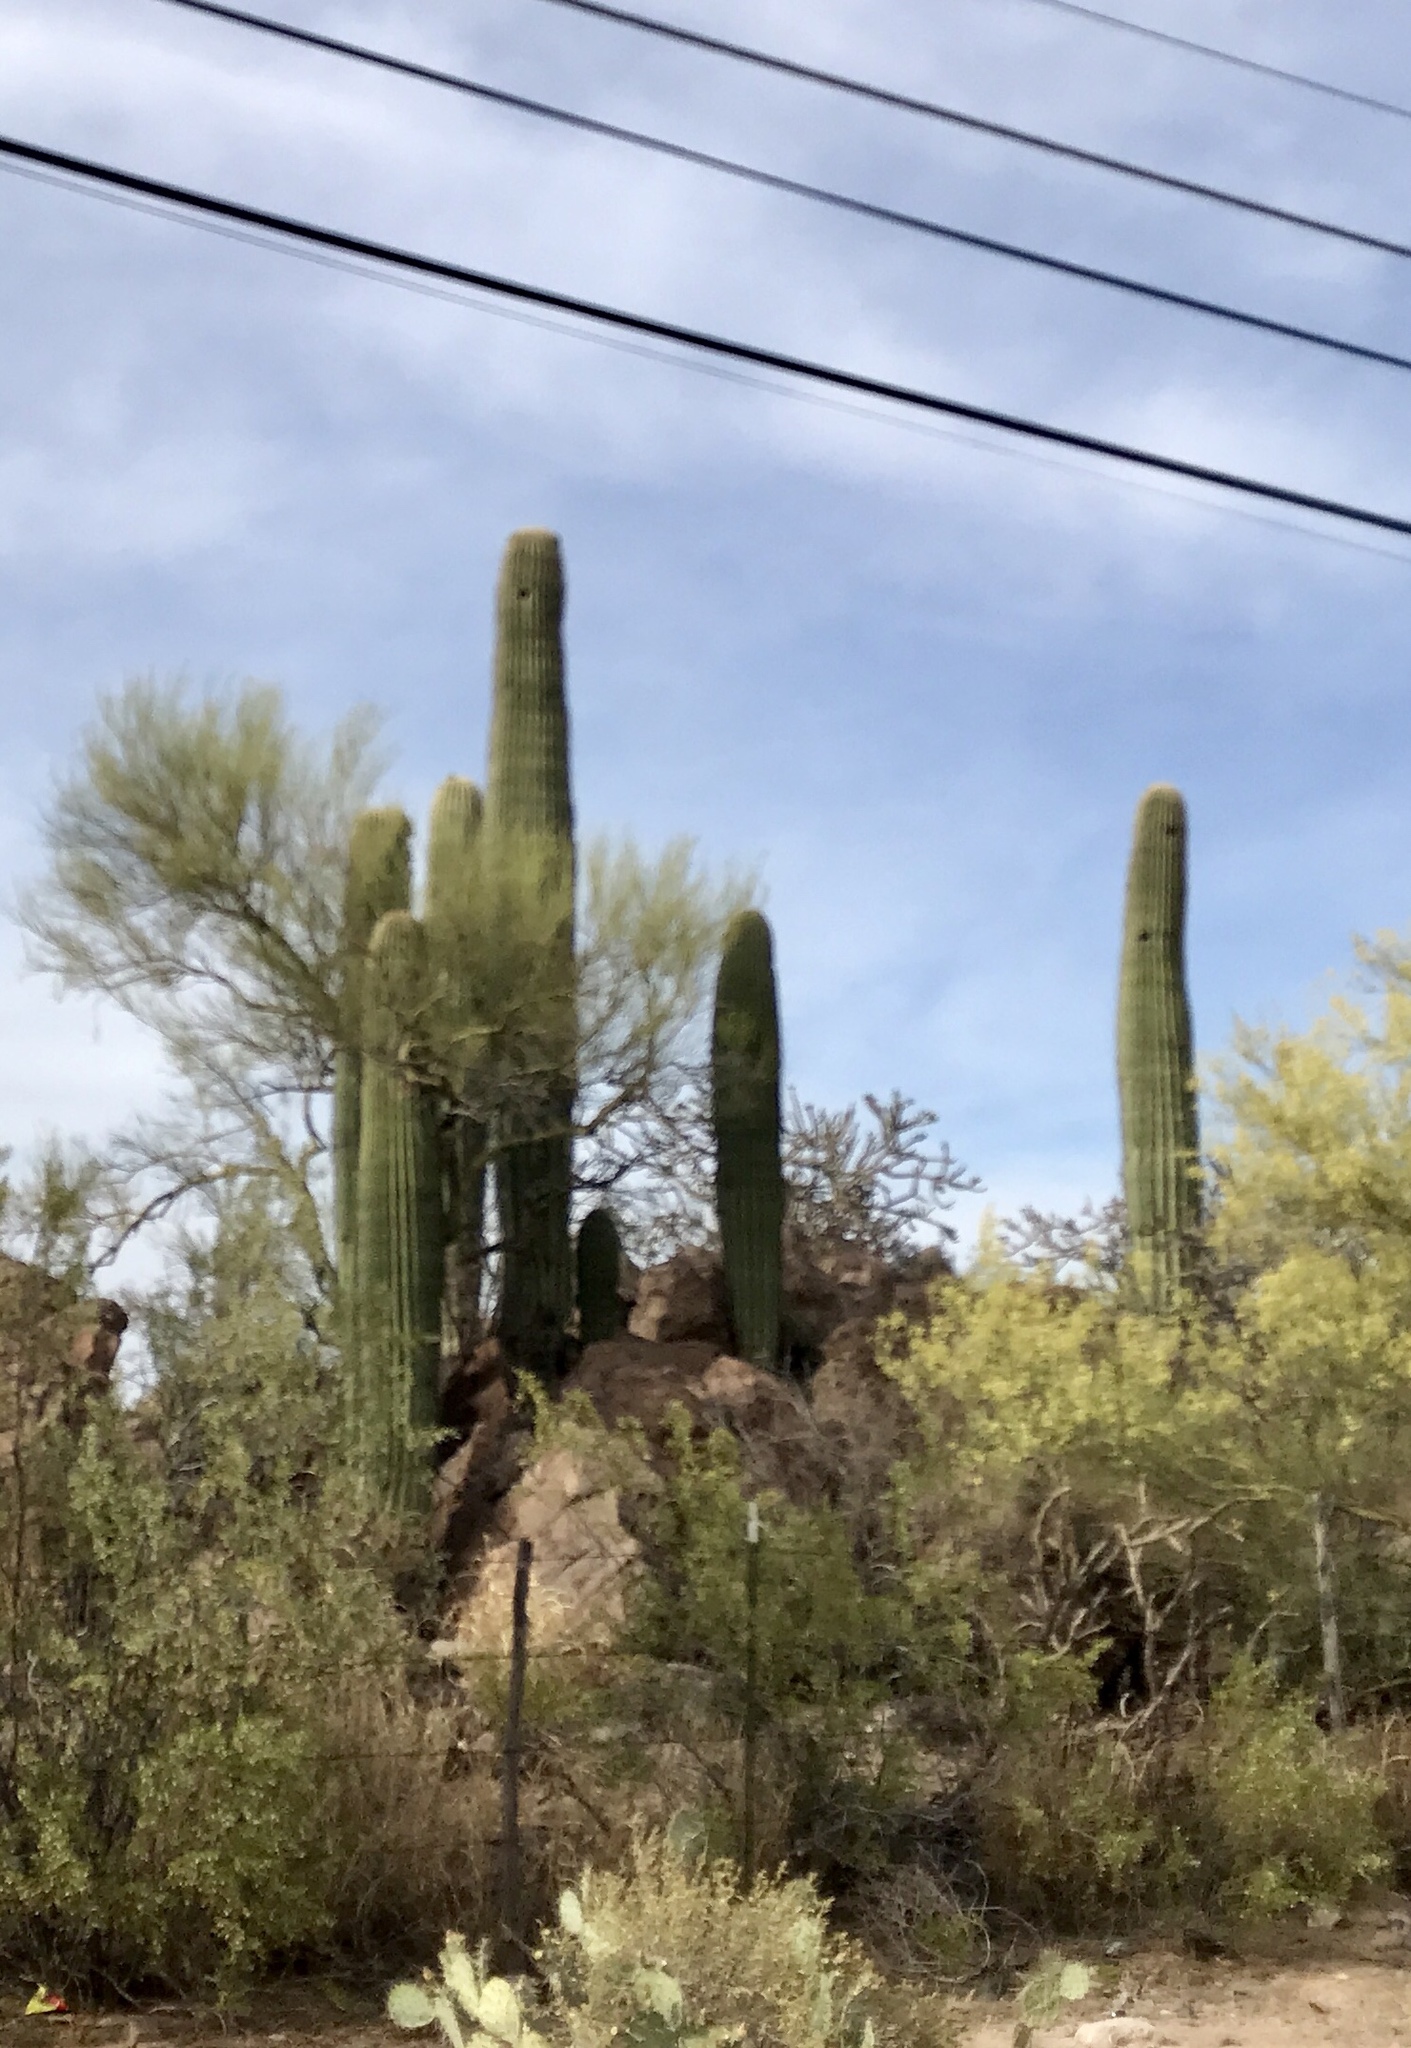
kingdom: Plantae
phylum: Tracheophyta
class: Magnoliopsida
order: Caryophyllales
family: Cactaceae
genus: Carnegiea
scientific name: Carnegiea gigantea
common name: Saguaro
